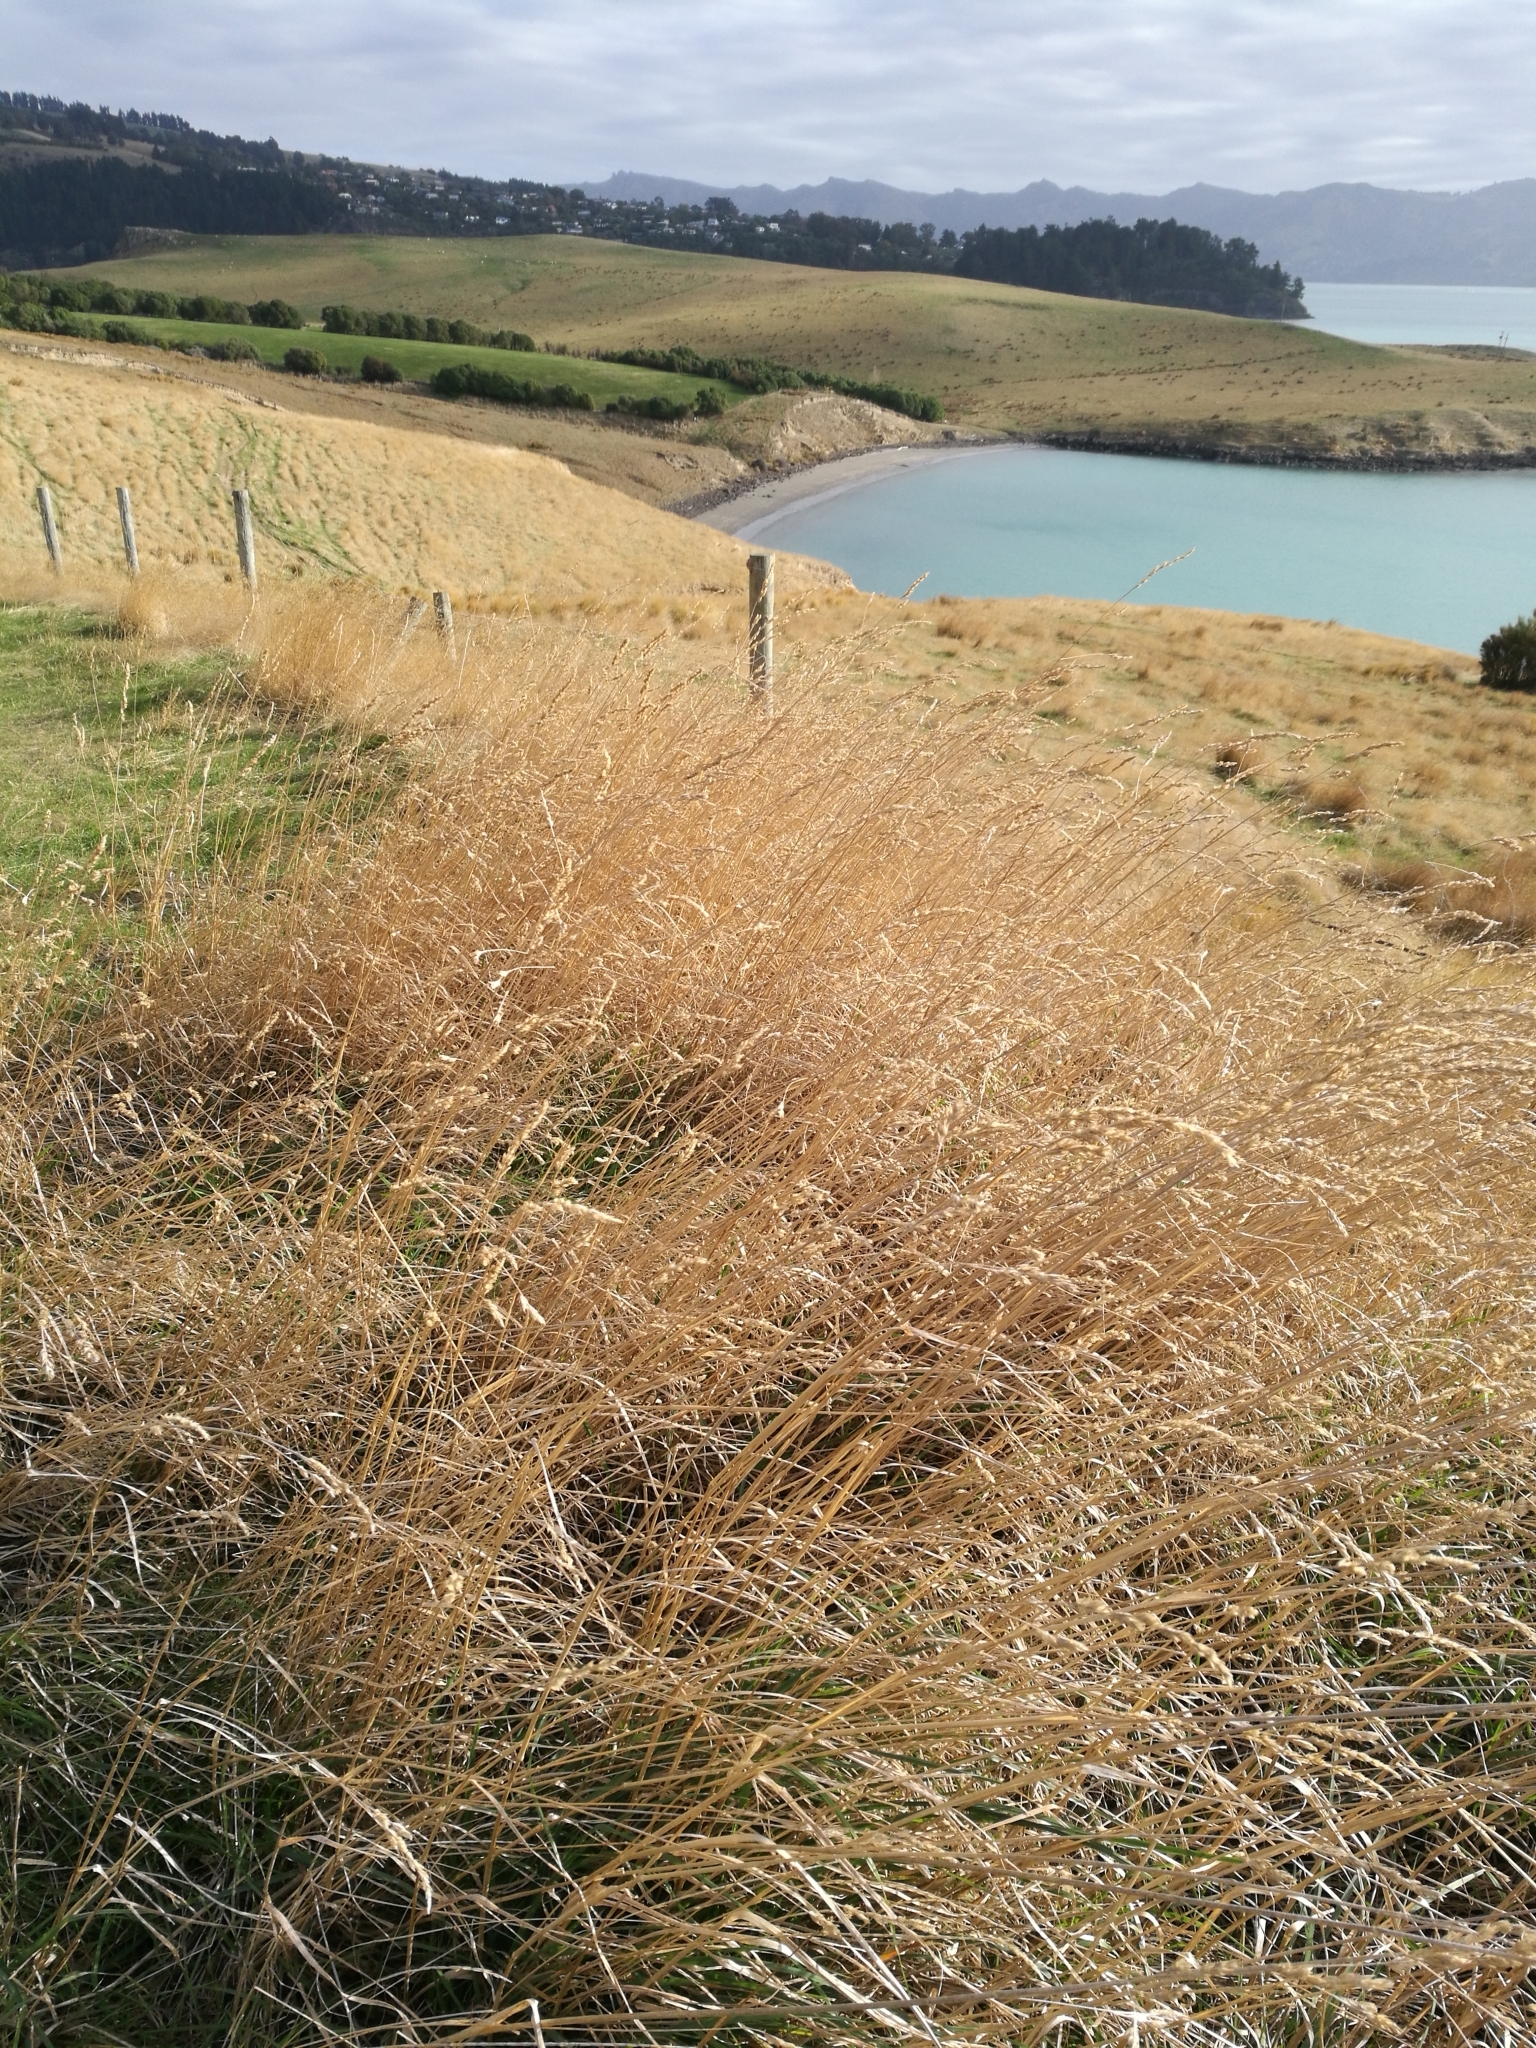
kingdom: Plantae
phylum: Tracheophyta
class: Liliopsida
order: Poales
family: Poaceae
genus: Dactylis
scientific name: Dactylis glomerata
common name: Orchardgrass
